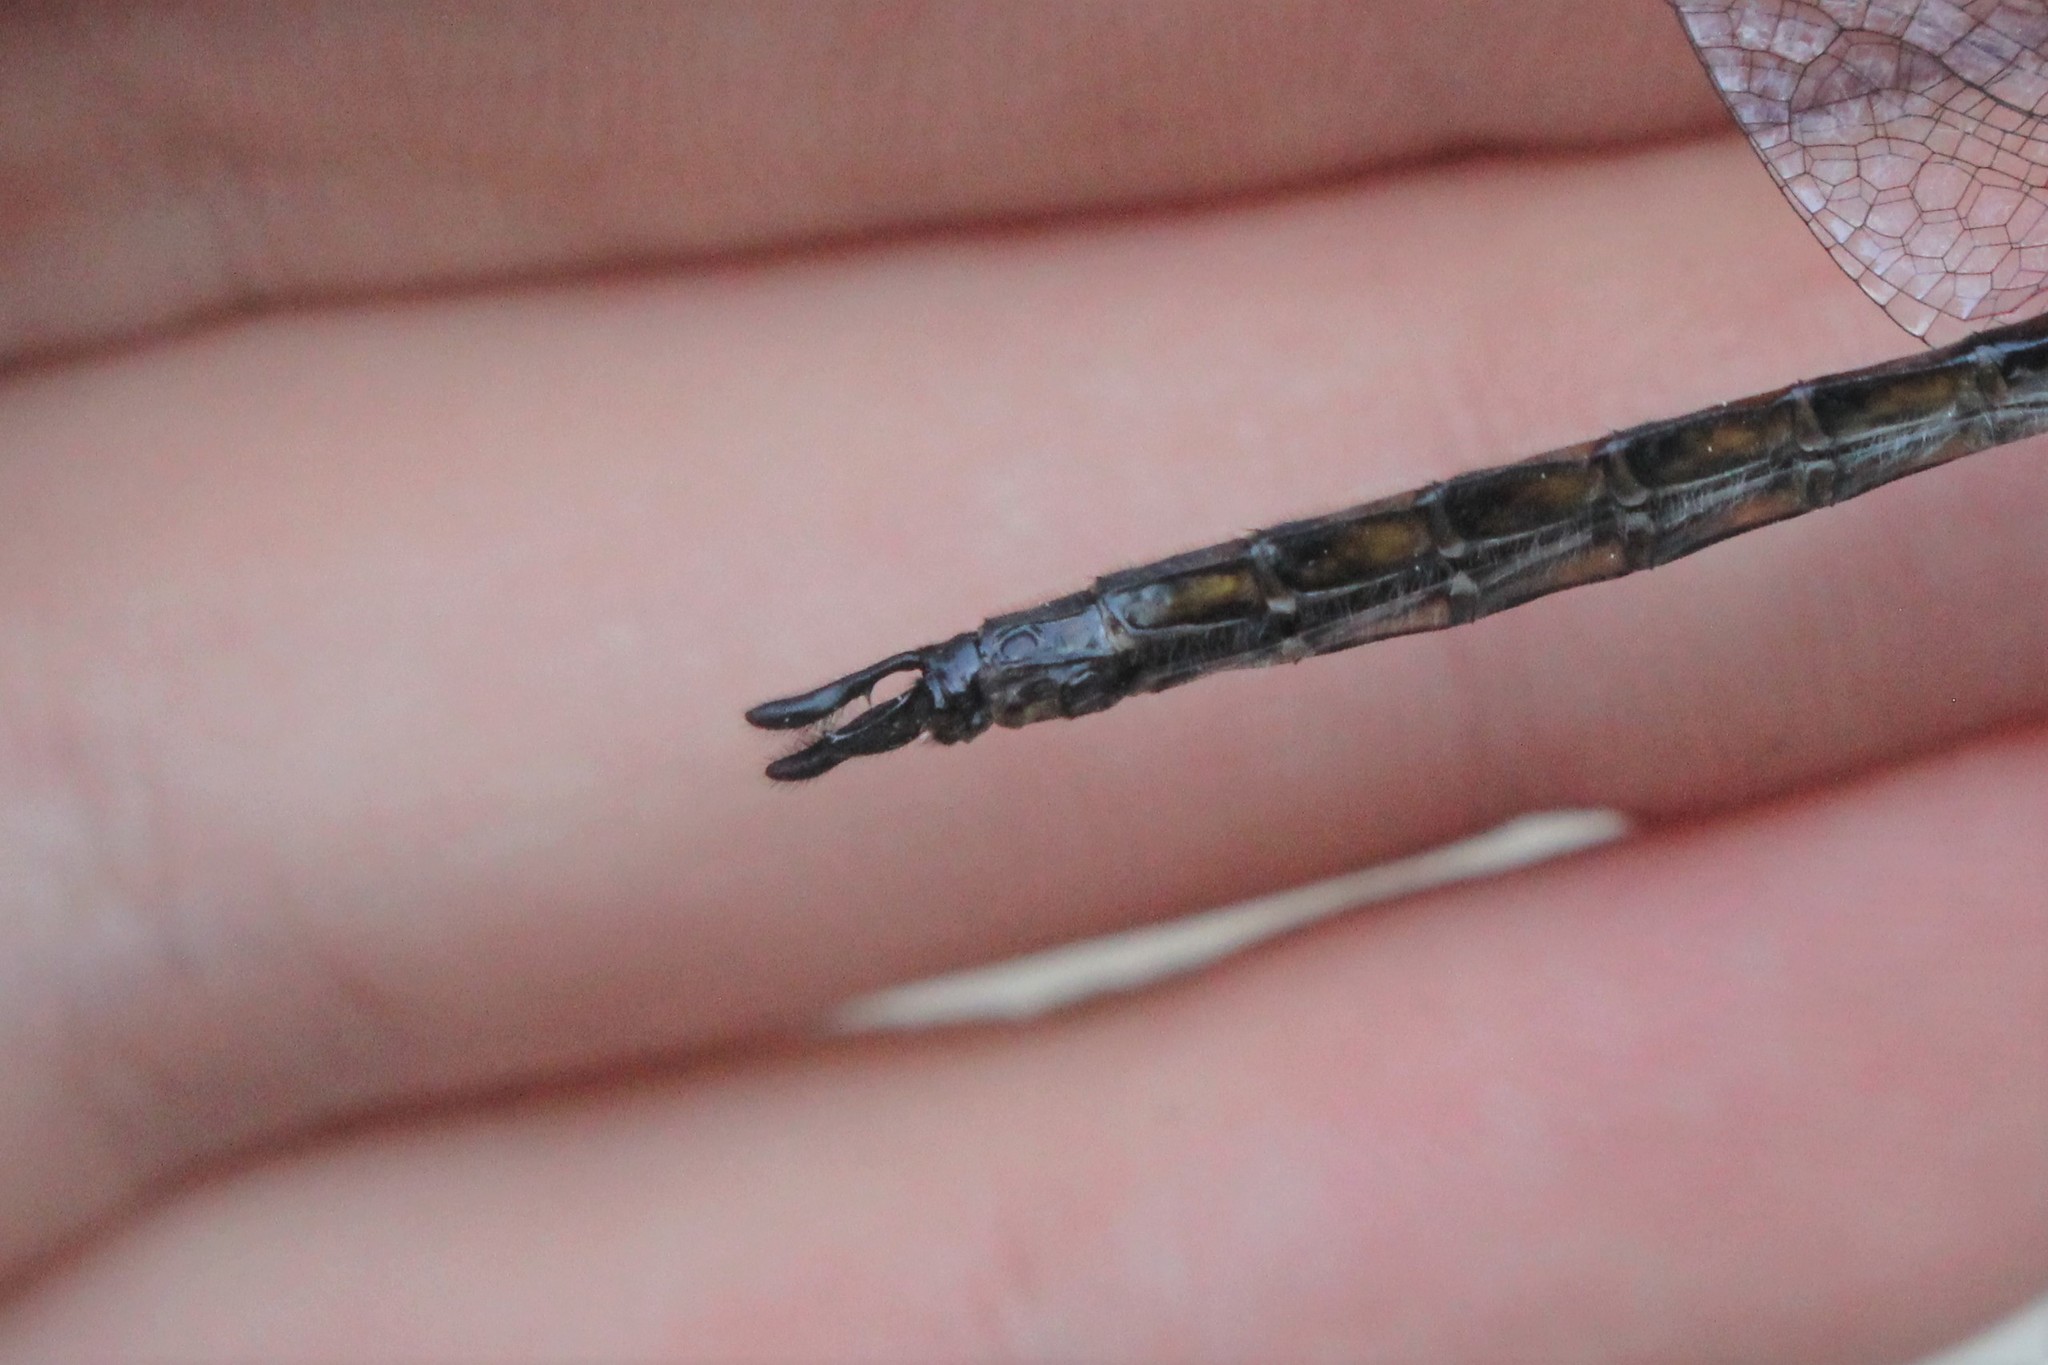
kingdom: Animalia
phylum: Arthropoda
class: Insecta
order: Odonata
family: Corduliidae
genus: Epitheca
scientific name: Epitheca spinigera
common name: Spiny baskettail
